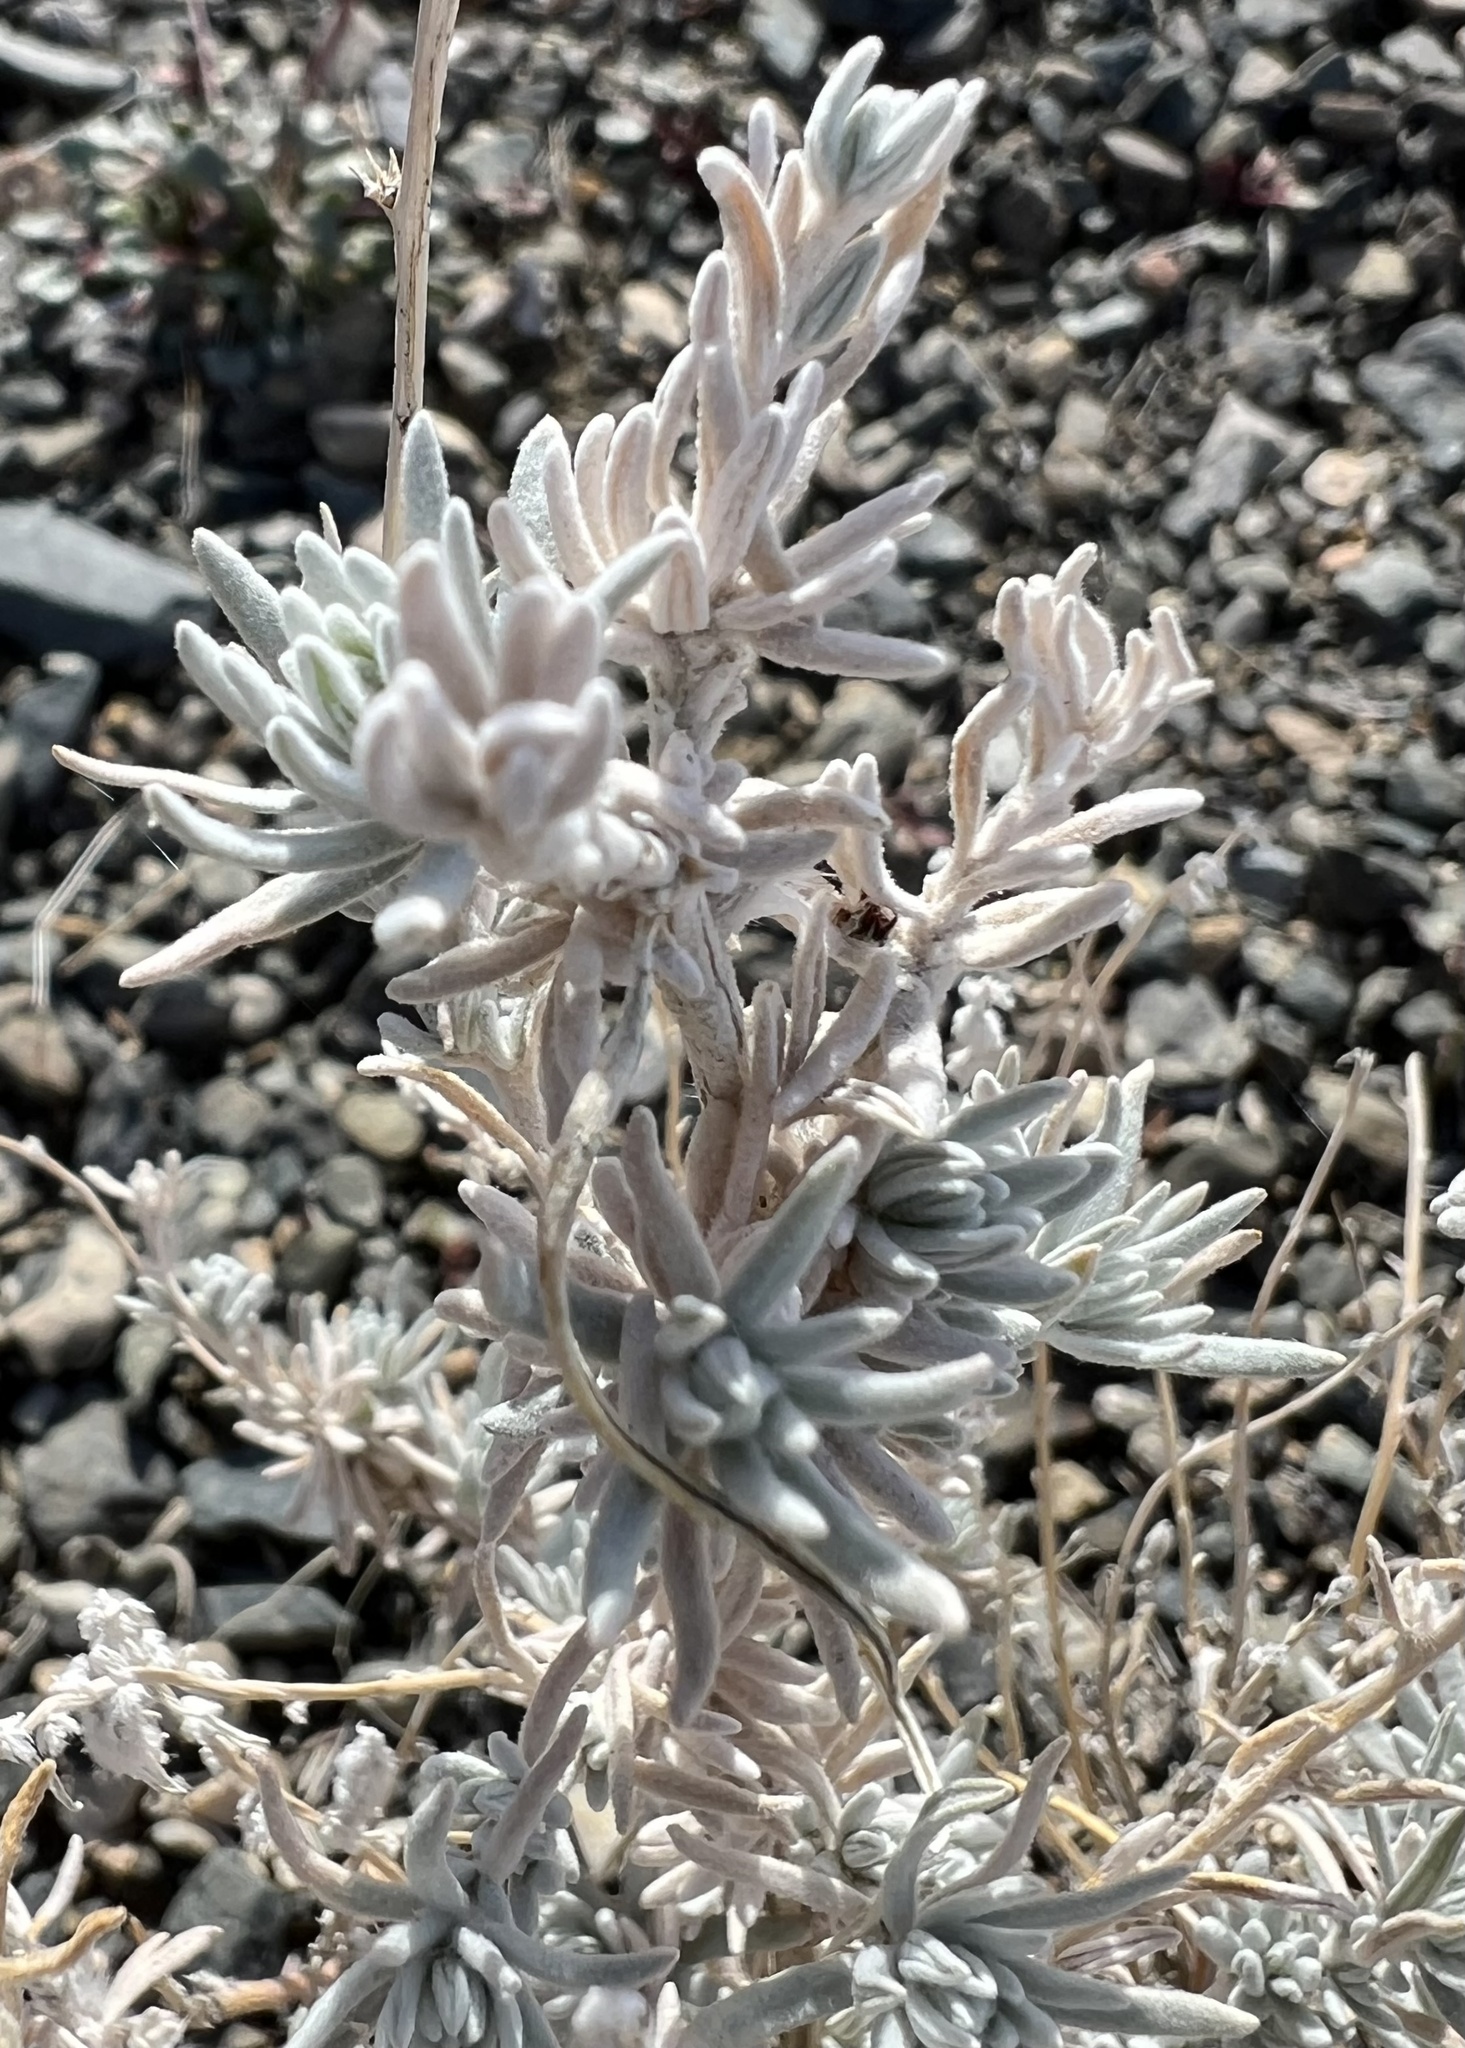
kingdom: Plantae
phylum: Tracheophyta
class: Magnoliopsida
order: Caryophyllales
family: Amaranthaceae
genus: Krascheninnikovia
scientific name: Krascheninnikovia lanata
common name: Winterfat
